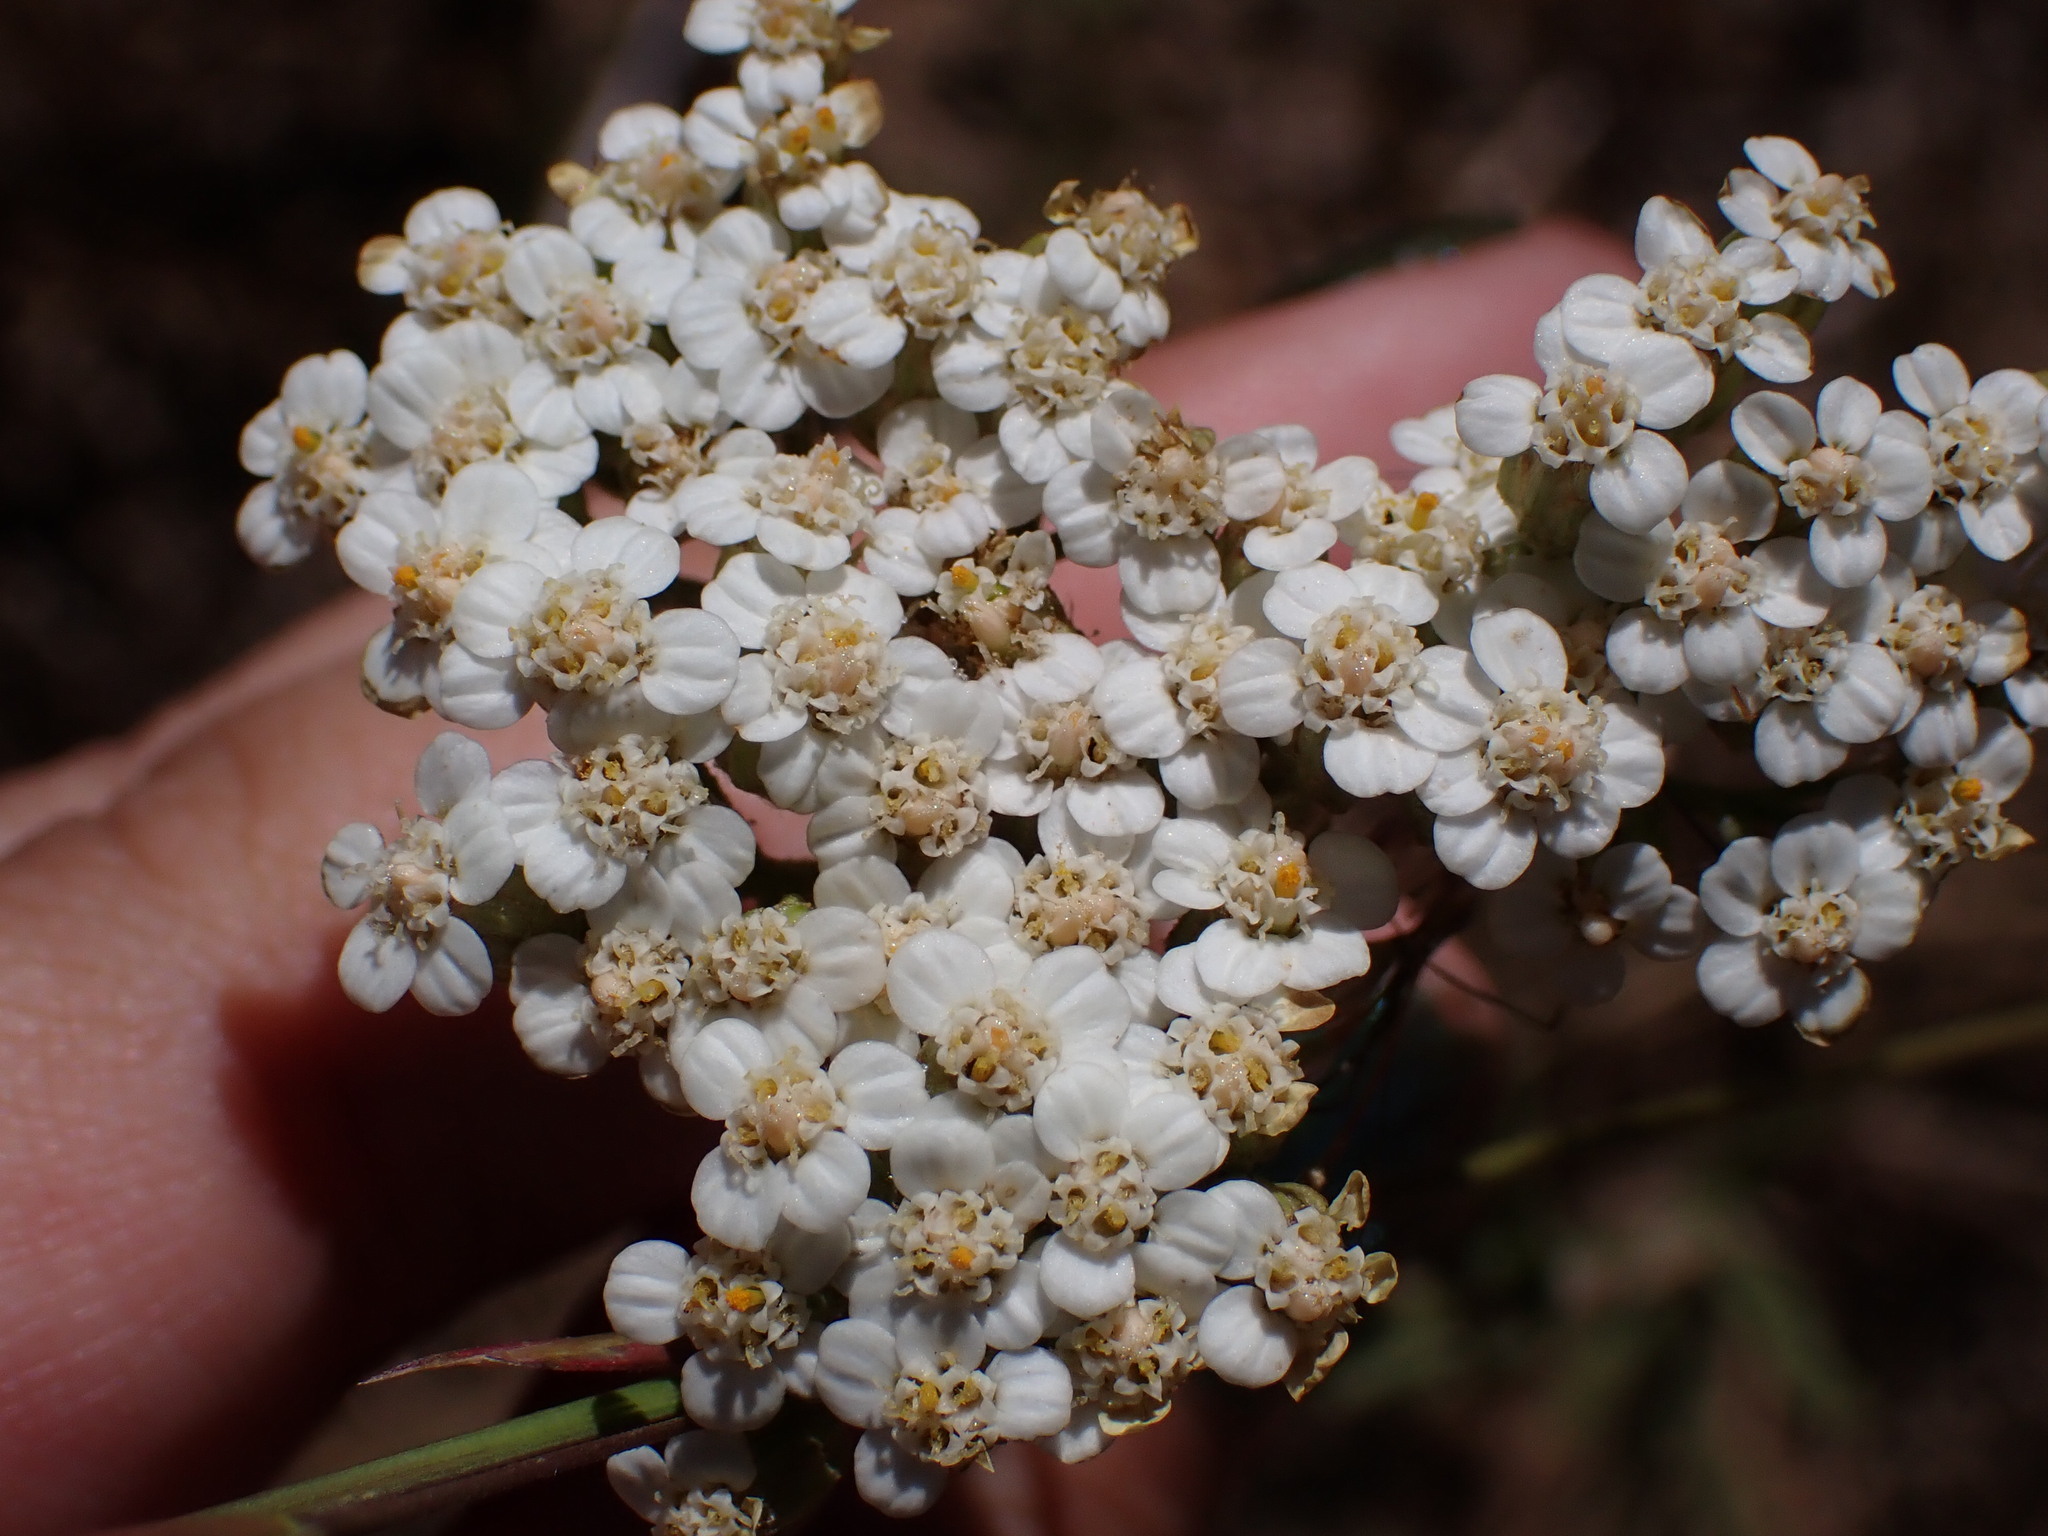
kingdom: Plantae
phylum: Tracheophyta
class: Magnoliopsida
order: Asterales
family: Asteraceae
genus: Achillea
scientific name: Achillea millefolium
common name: Yarrow
